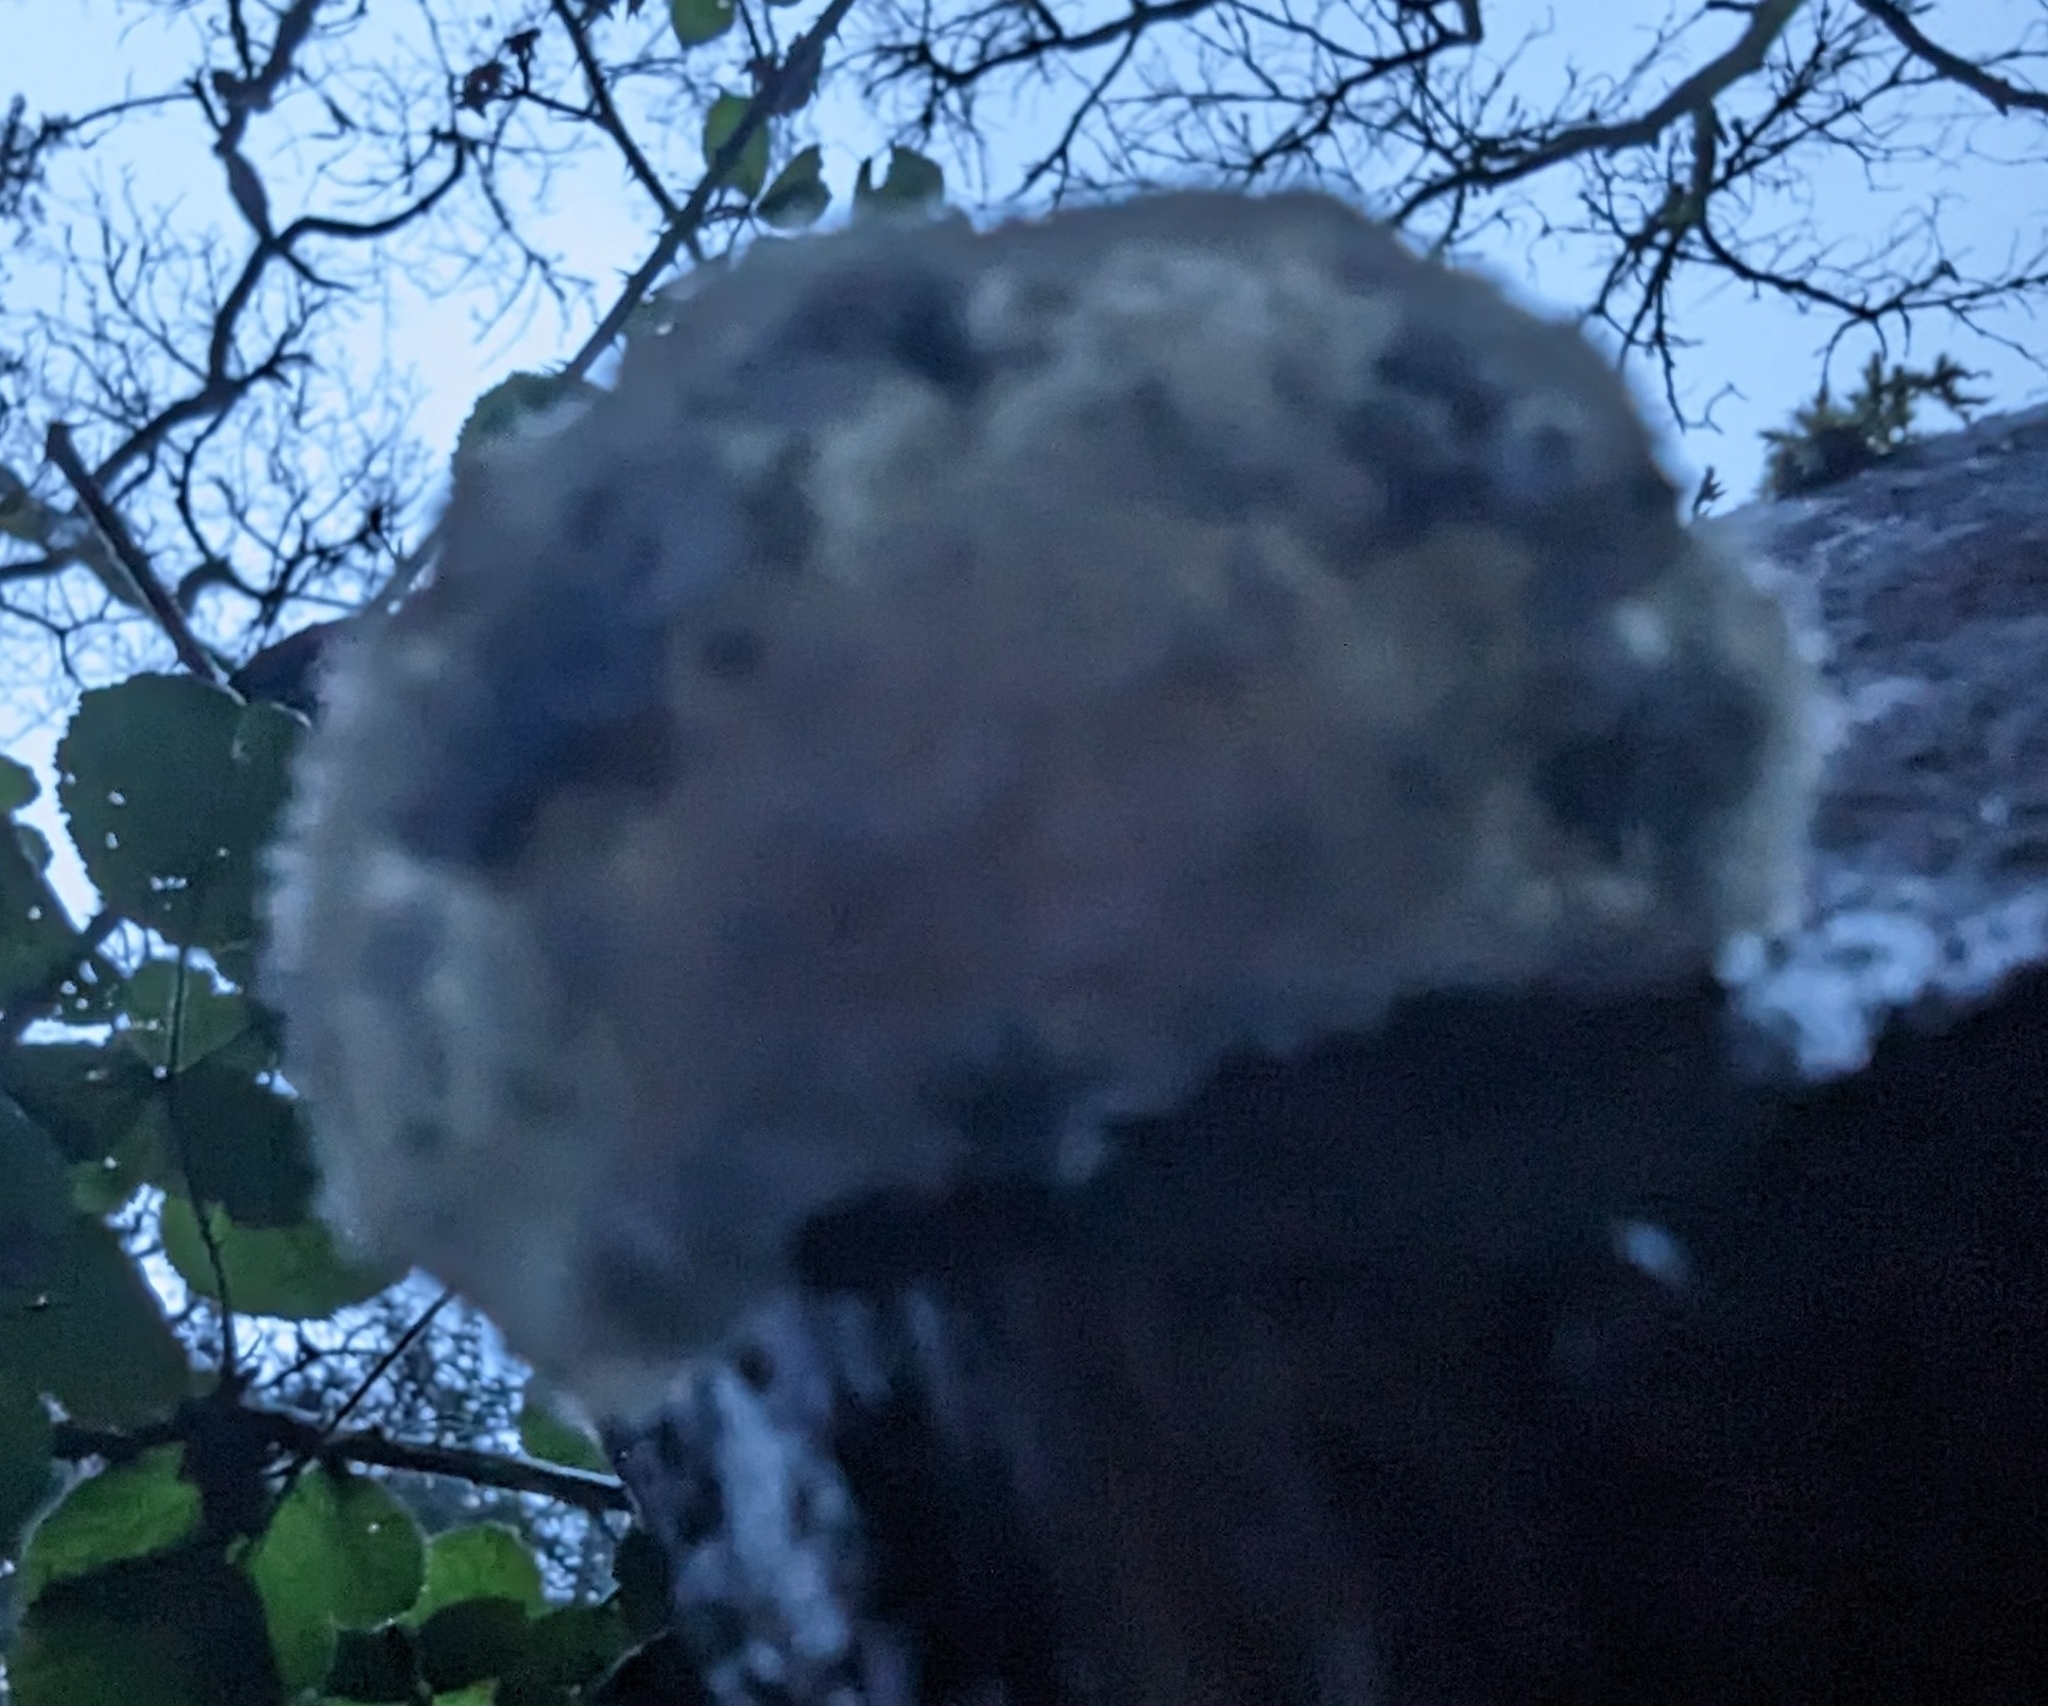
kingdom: Fungi
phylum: Basidiomycota
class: Agaricomycetes
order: Polyporales
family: Polyporaceae
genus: Cyanosporus
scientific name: Cyanosporus caesius
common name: Blue cheese polypore
